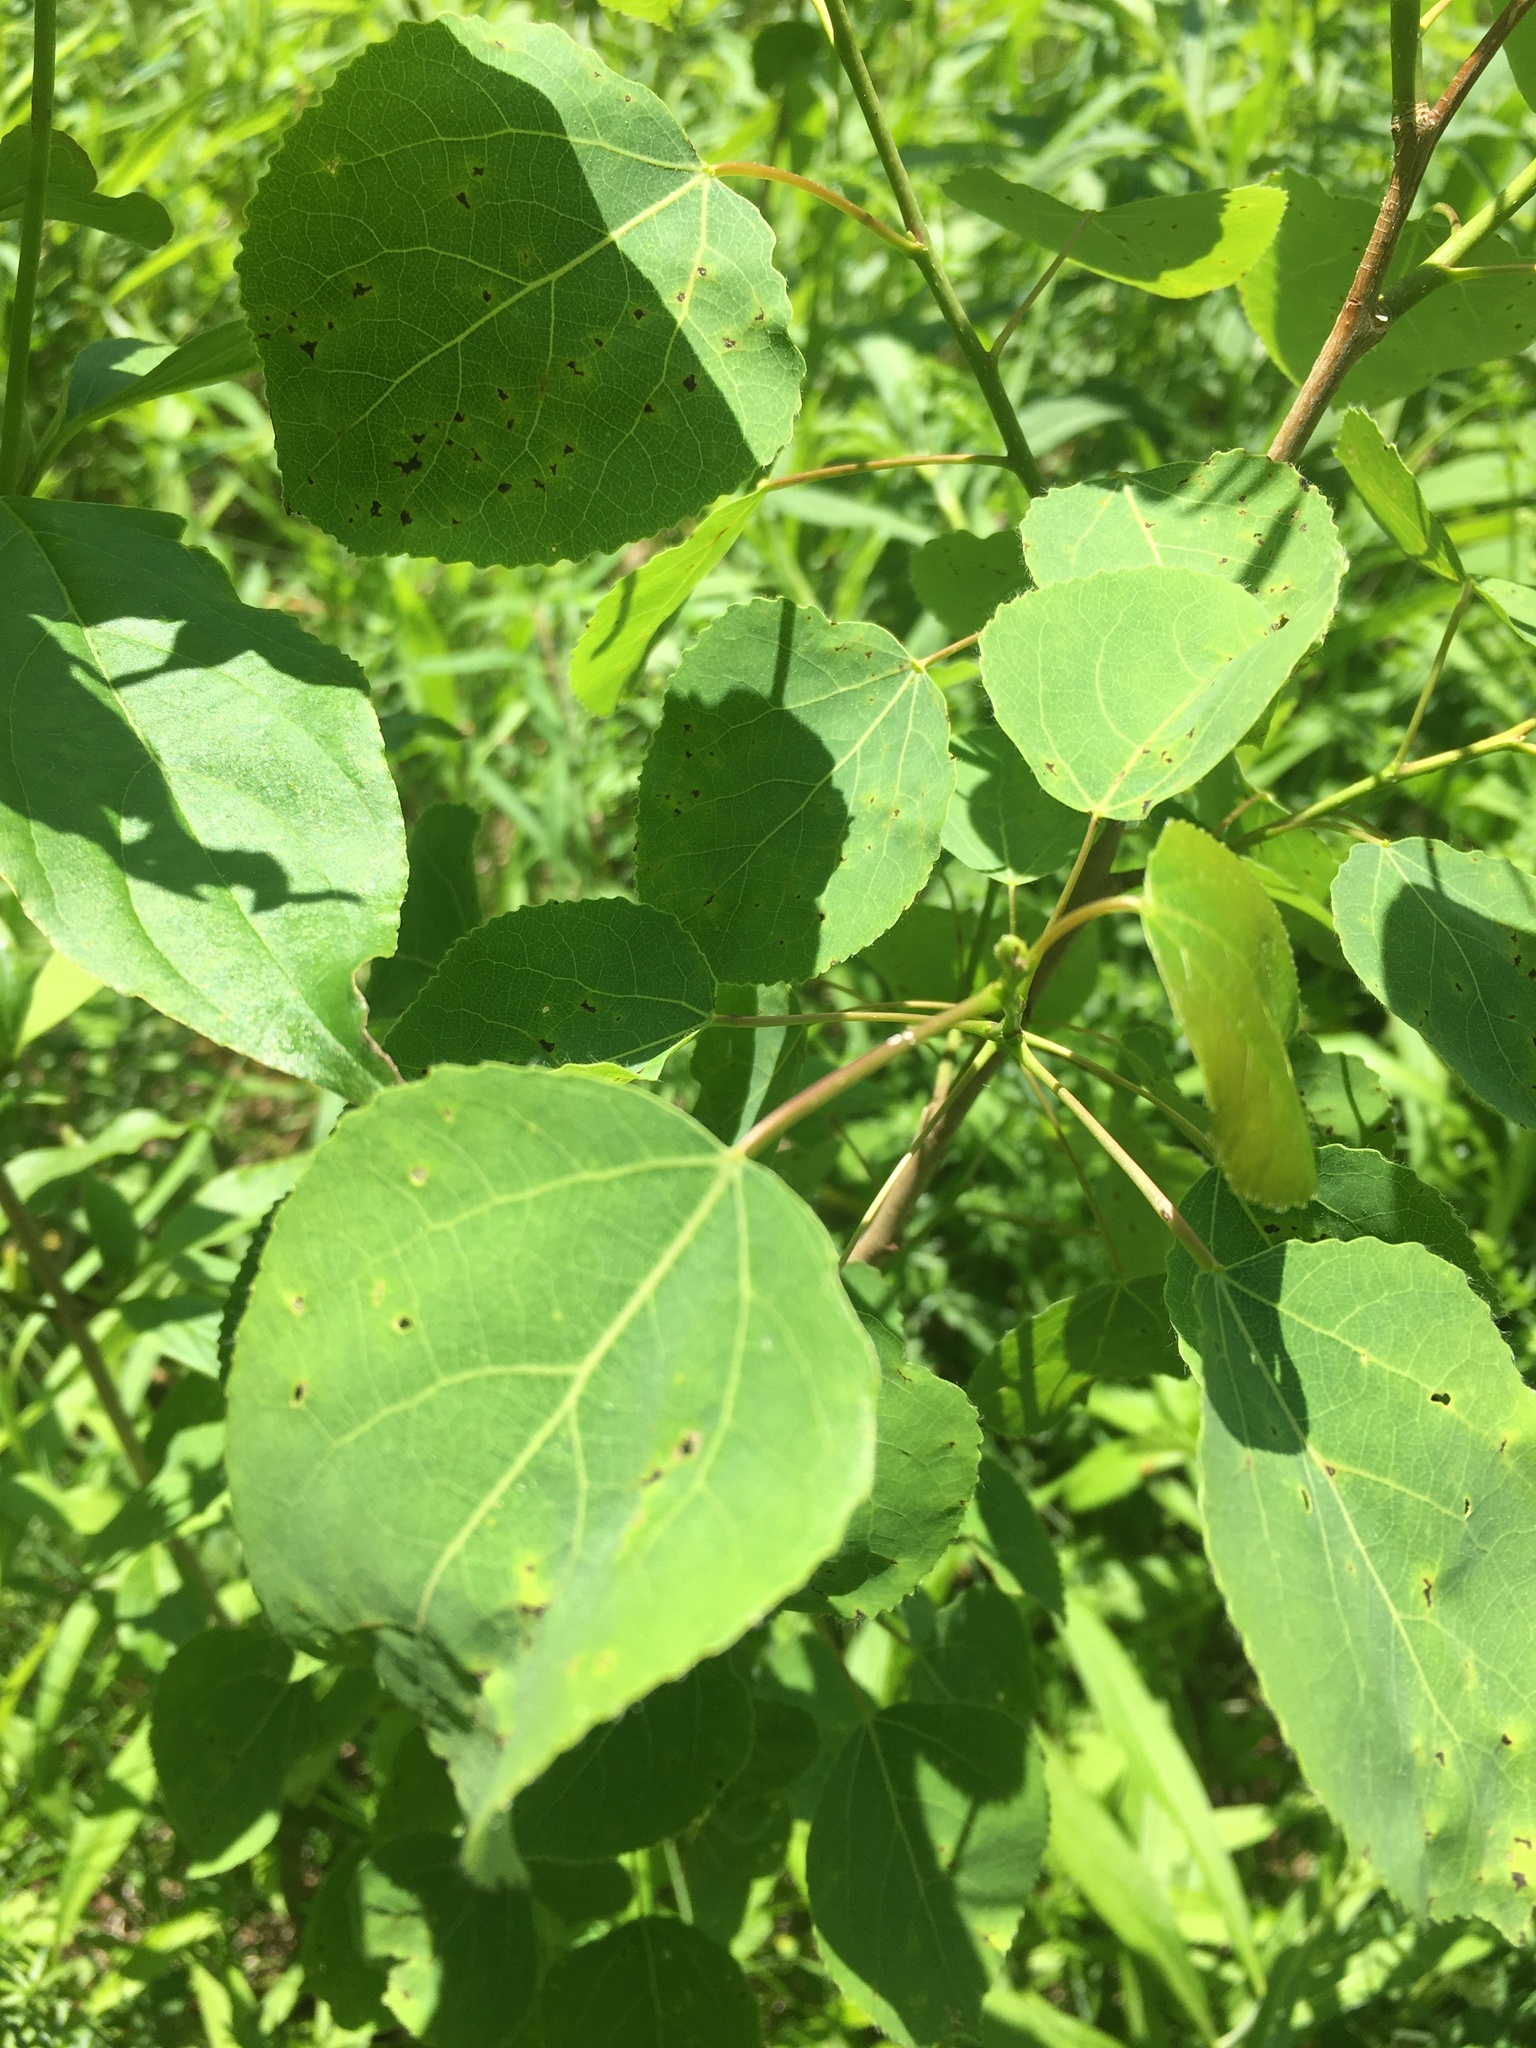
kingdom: Plantae
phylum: Tracheophyta
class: Magnoliopsida
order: Malpighiales
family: Salicaceae
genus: Populus
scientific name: Populus tremuloides
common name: Quaking aspen
